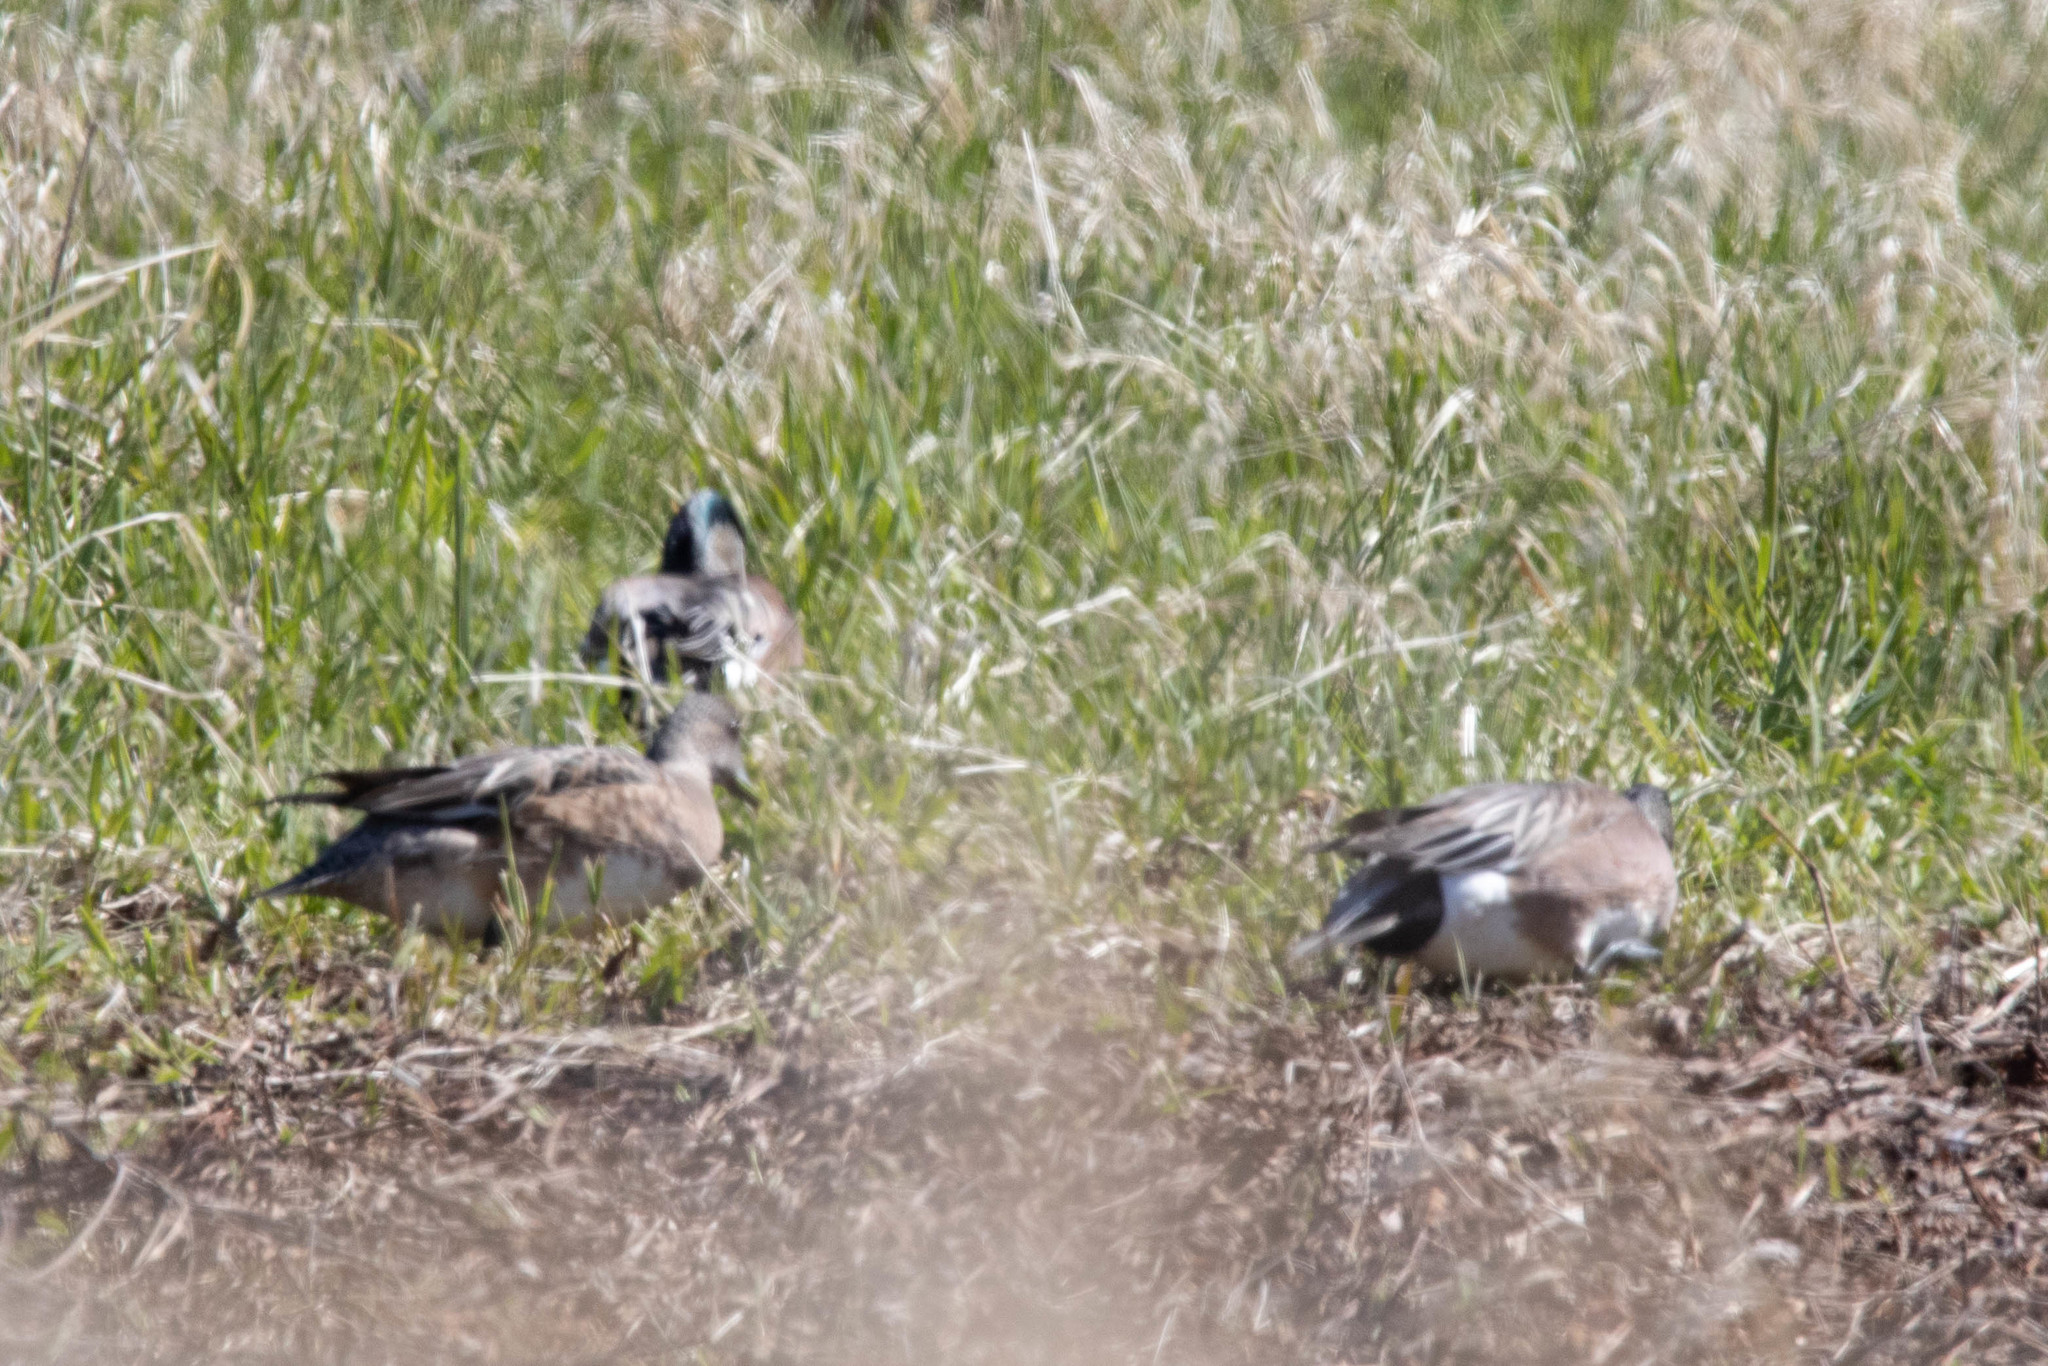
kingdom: Animalia
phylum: Chordata
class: Aves
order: Anseriformes
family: Anatidae
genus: Mareca
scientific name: Mareca americana
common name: American wigeon
